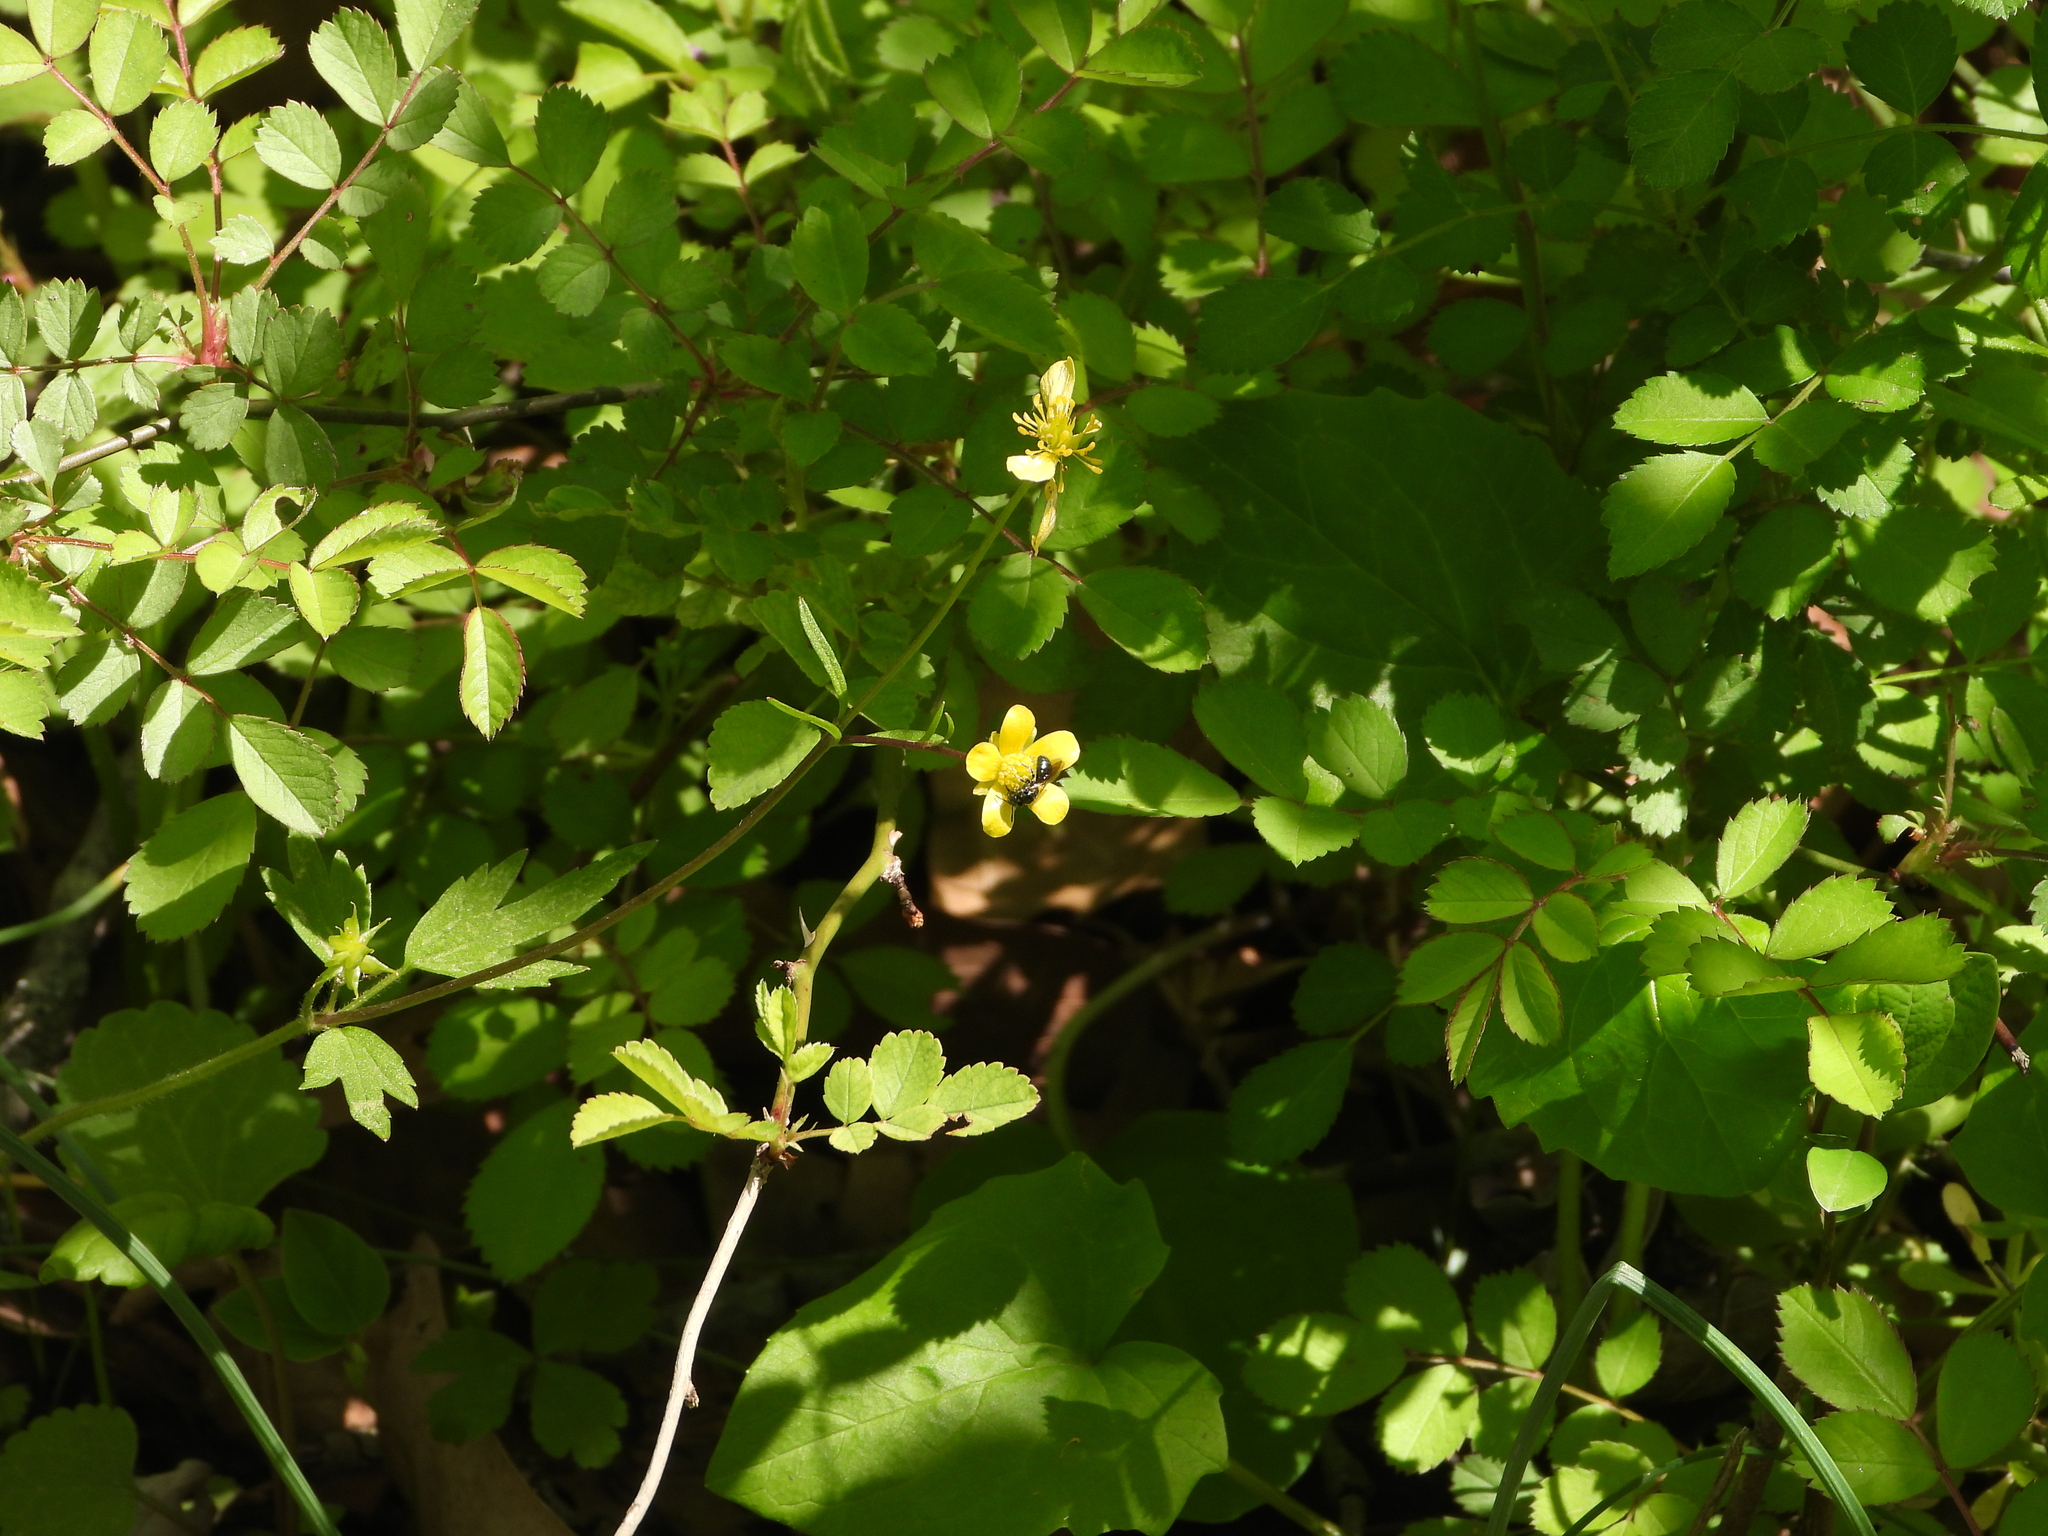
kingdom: Plantae
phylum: Tracheophyta
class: Magnoliopsida
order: Ranunculales
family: Ranunculaceae
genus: Ranunculus
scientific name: Ranunculus micranthus
